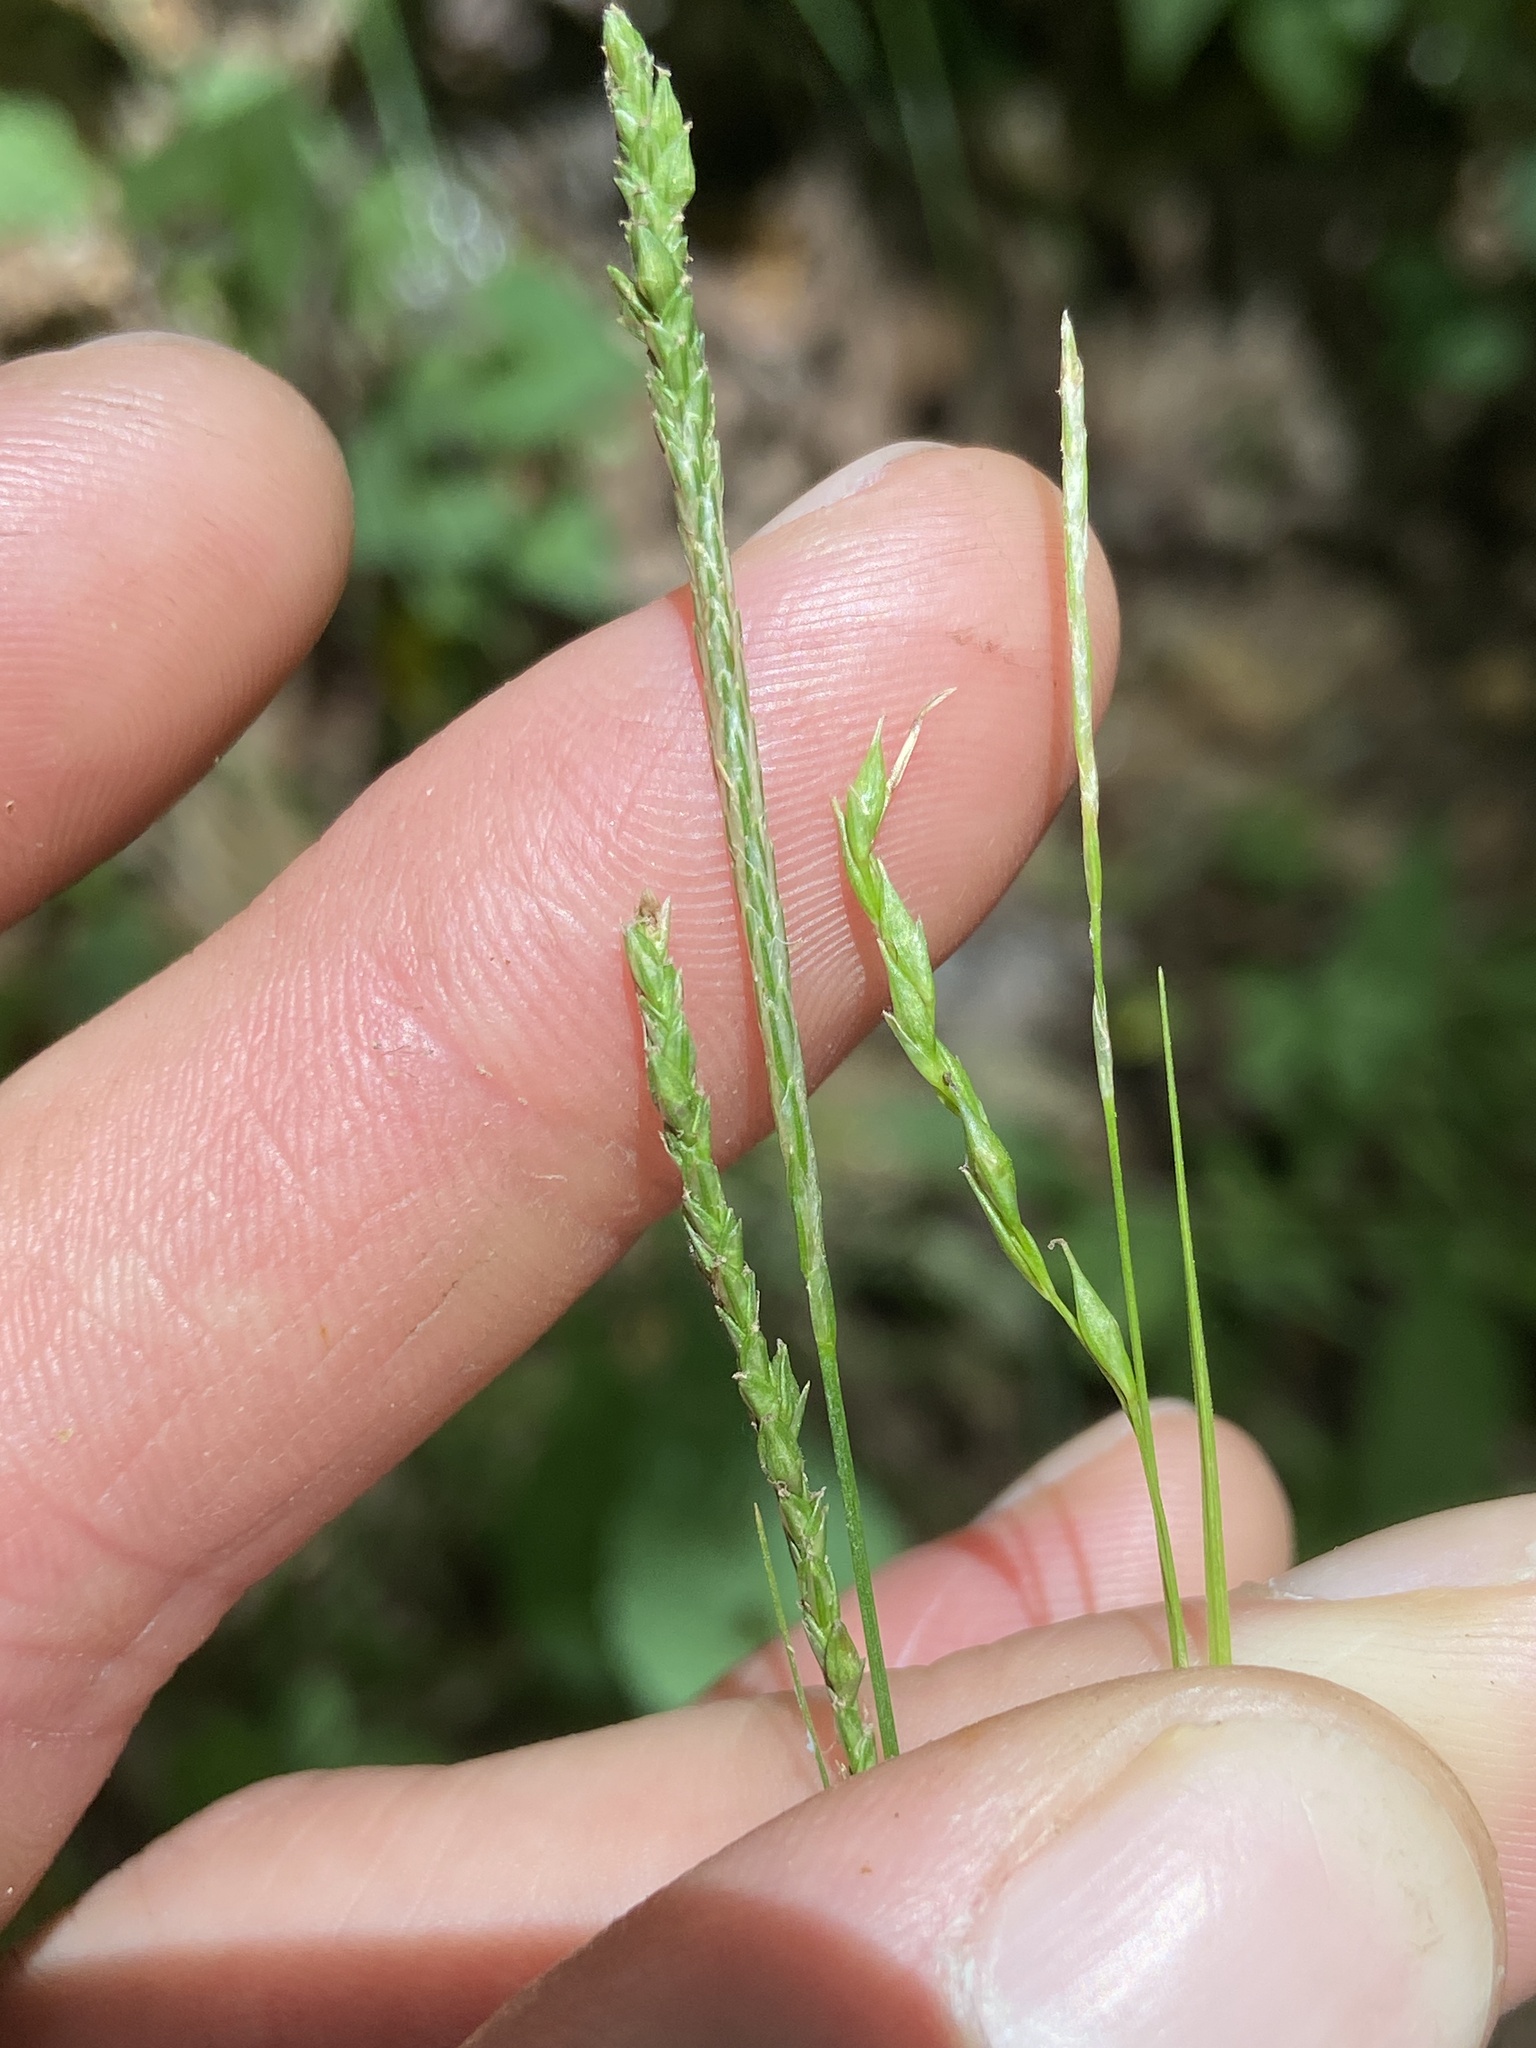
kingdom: Plantae
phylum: Tracheophyta
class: Liliopsida
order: Poales
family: Cyperaceae
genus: Carex
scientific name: Carex aestivalis
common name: Summer sedge
